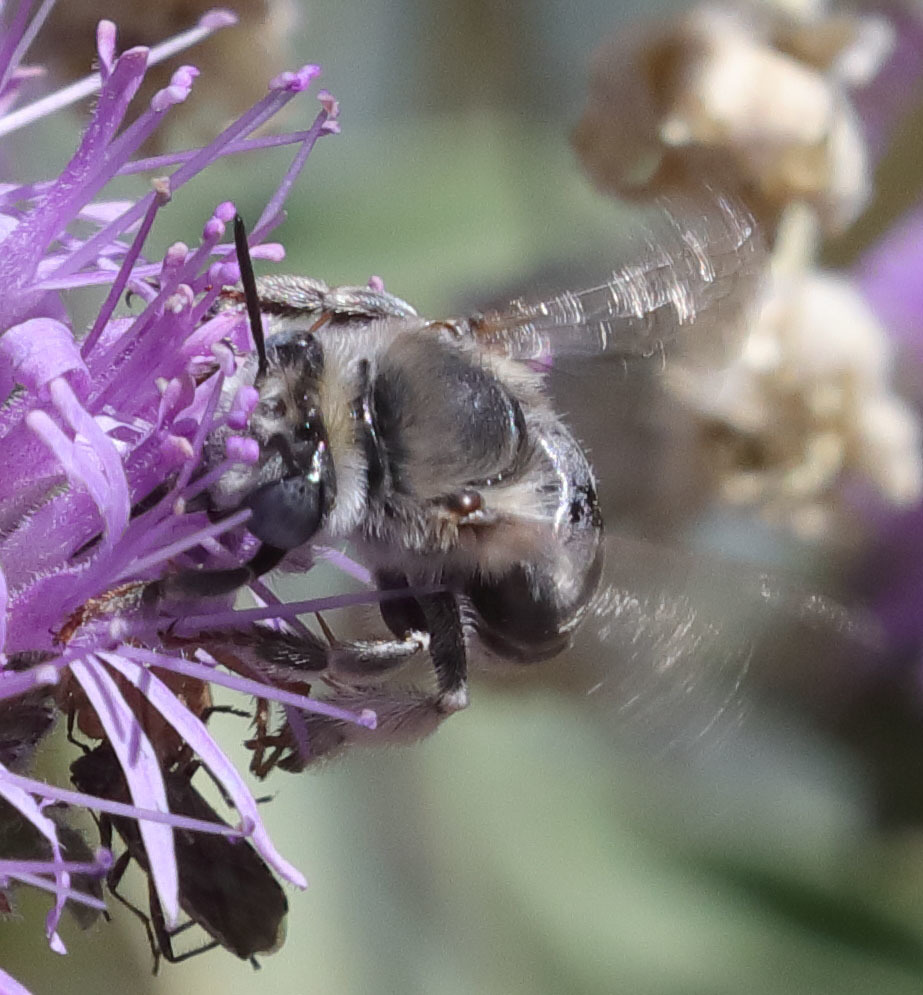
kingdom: Animalia
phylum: Arthropoda
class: Insecta
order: Hymenoptera
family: Apidae
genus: Anthophora
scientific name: Anthophora urbana
